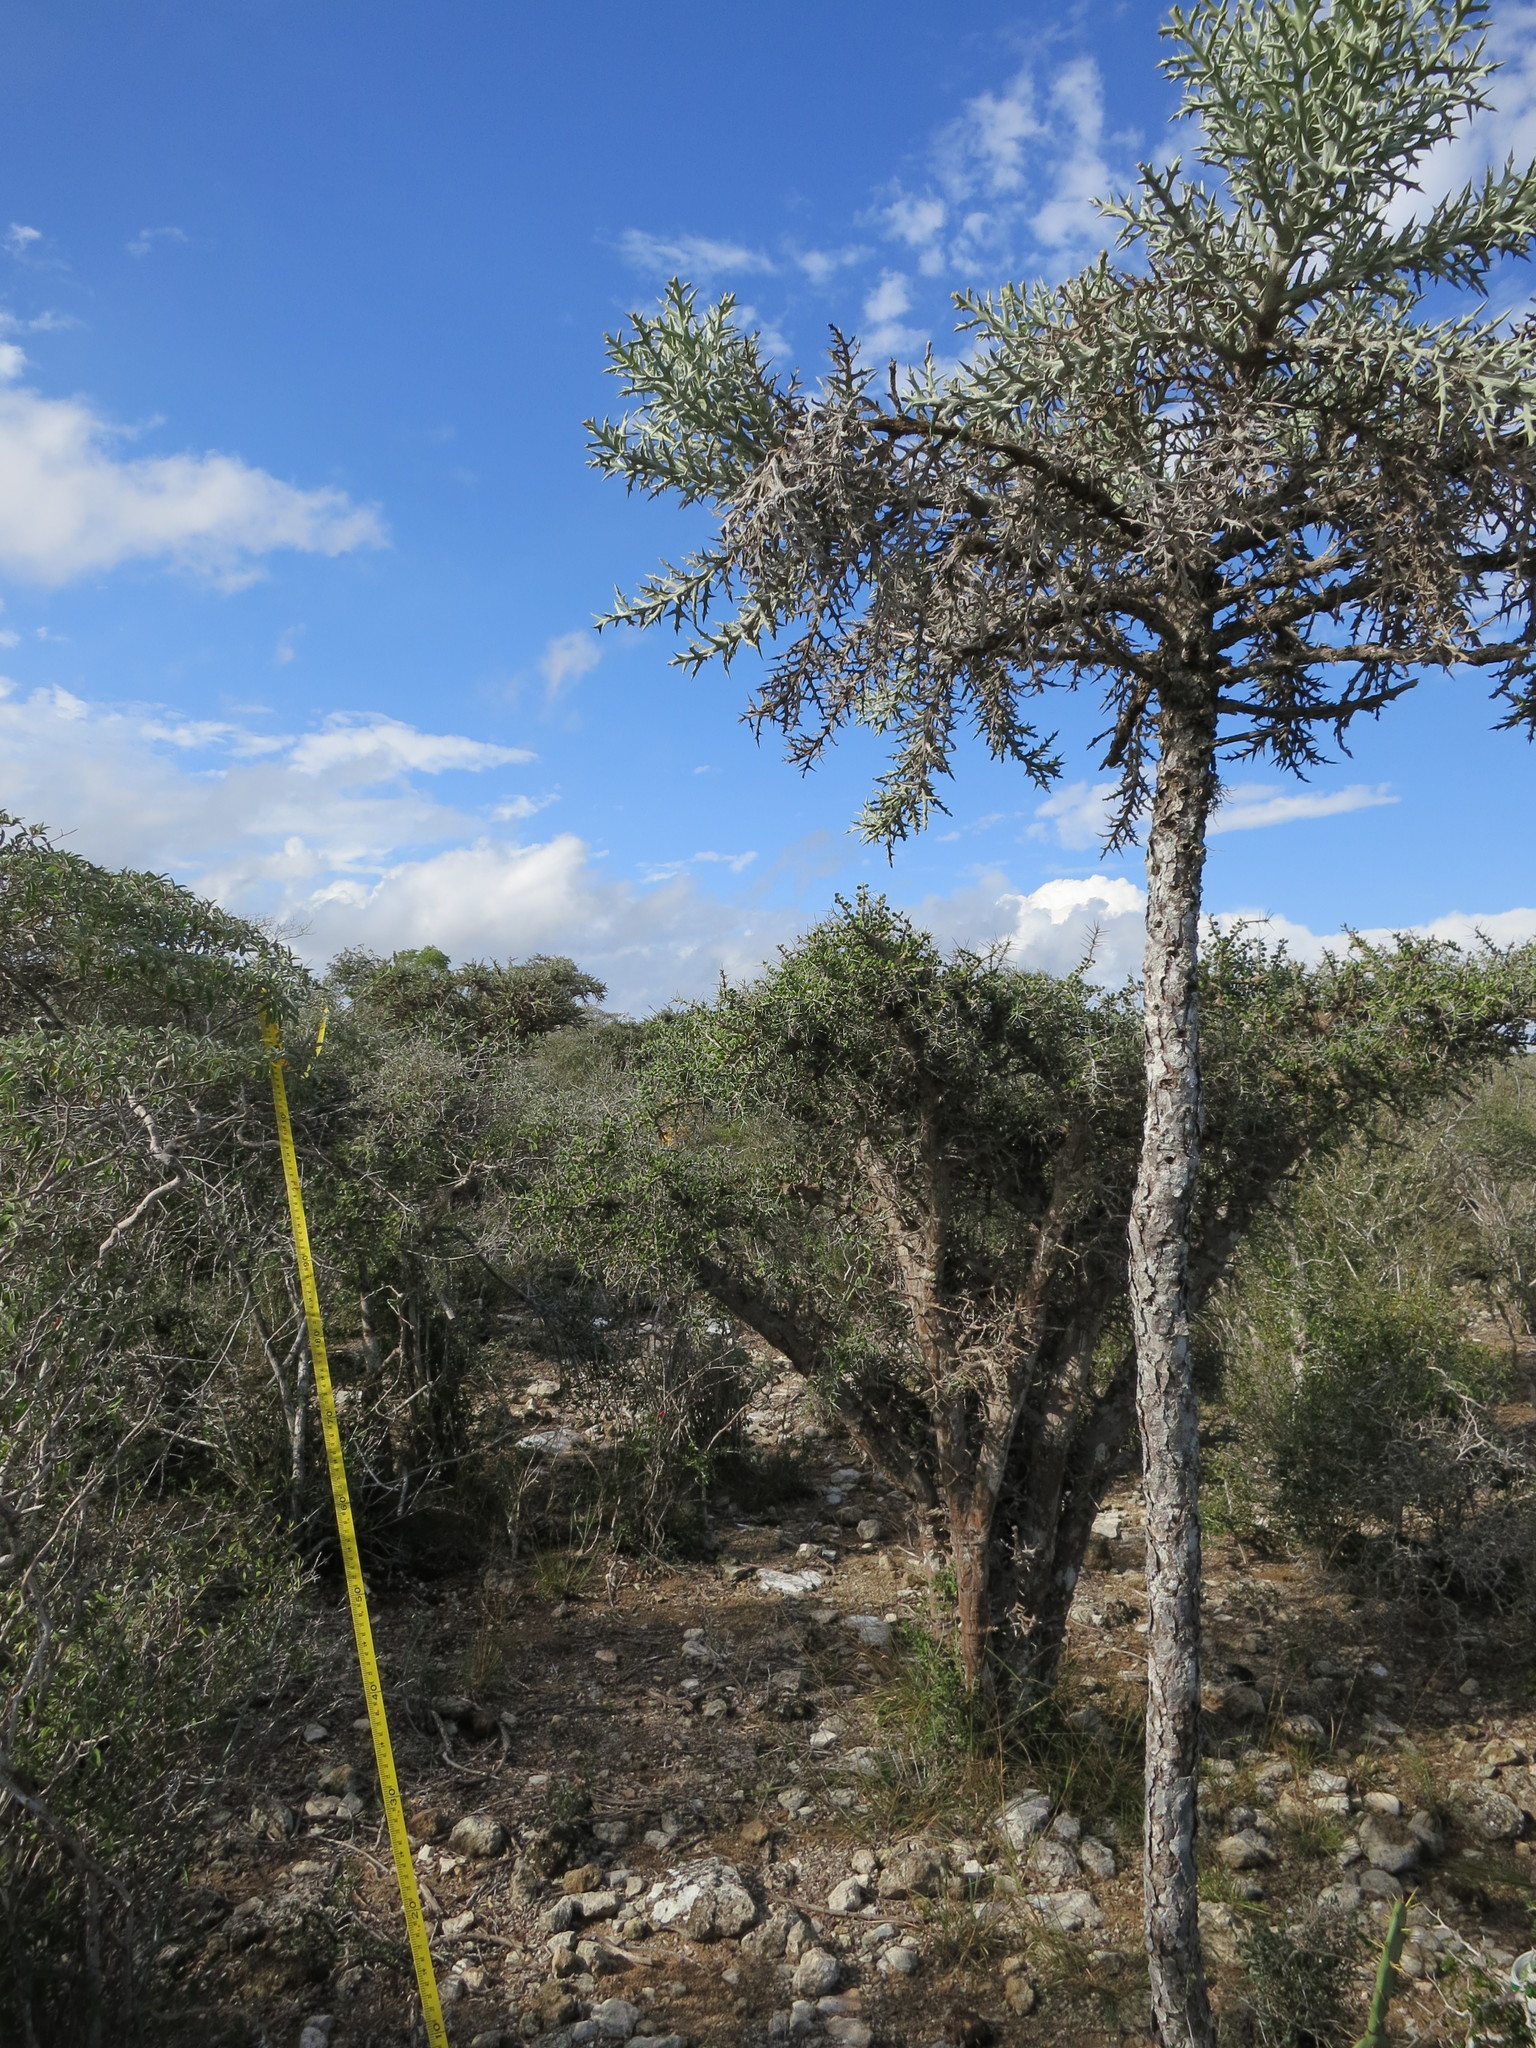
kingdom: Plantae
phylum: Tracheophyta
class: Magnoliopsida
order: Malpighiales
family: Euphorbiaceae
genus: Euphorbia
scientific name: Euphorbia stenoclada
